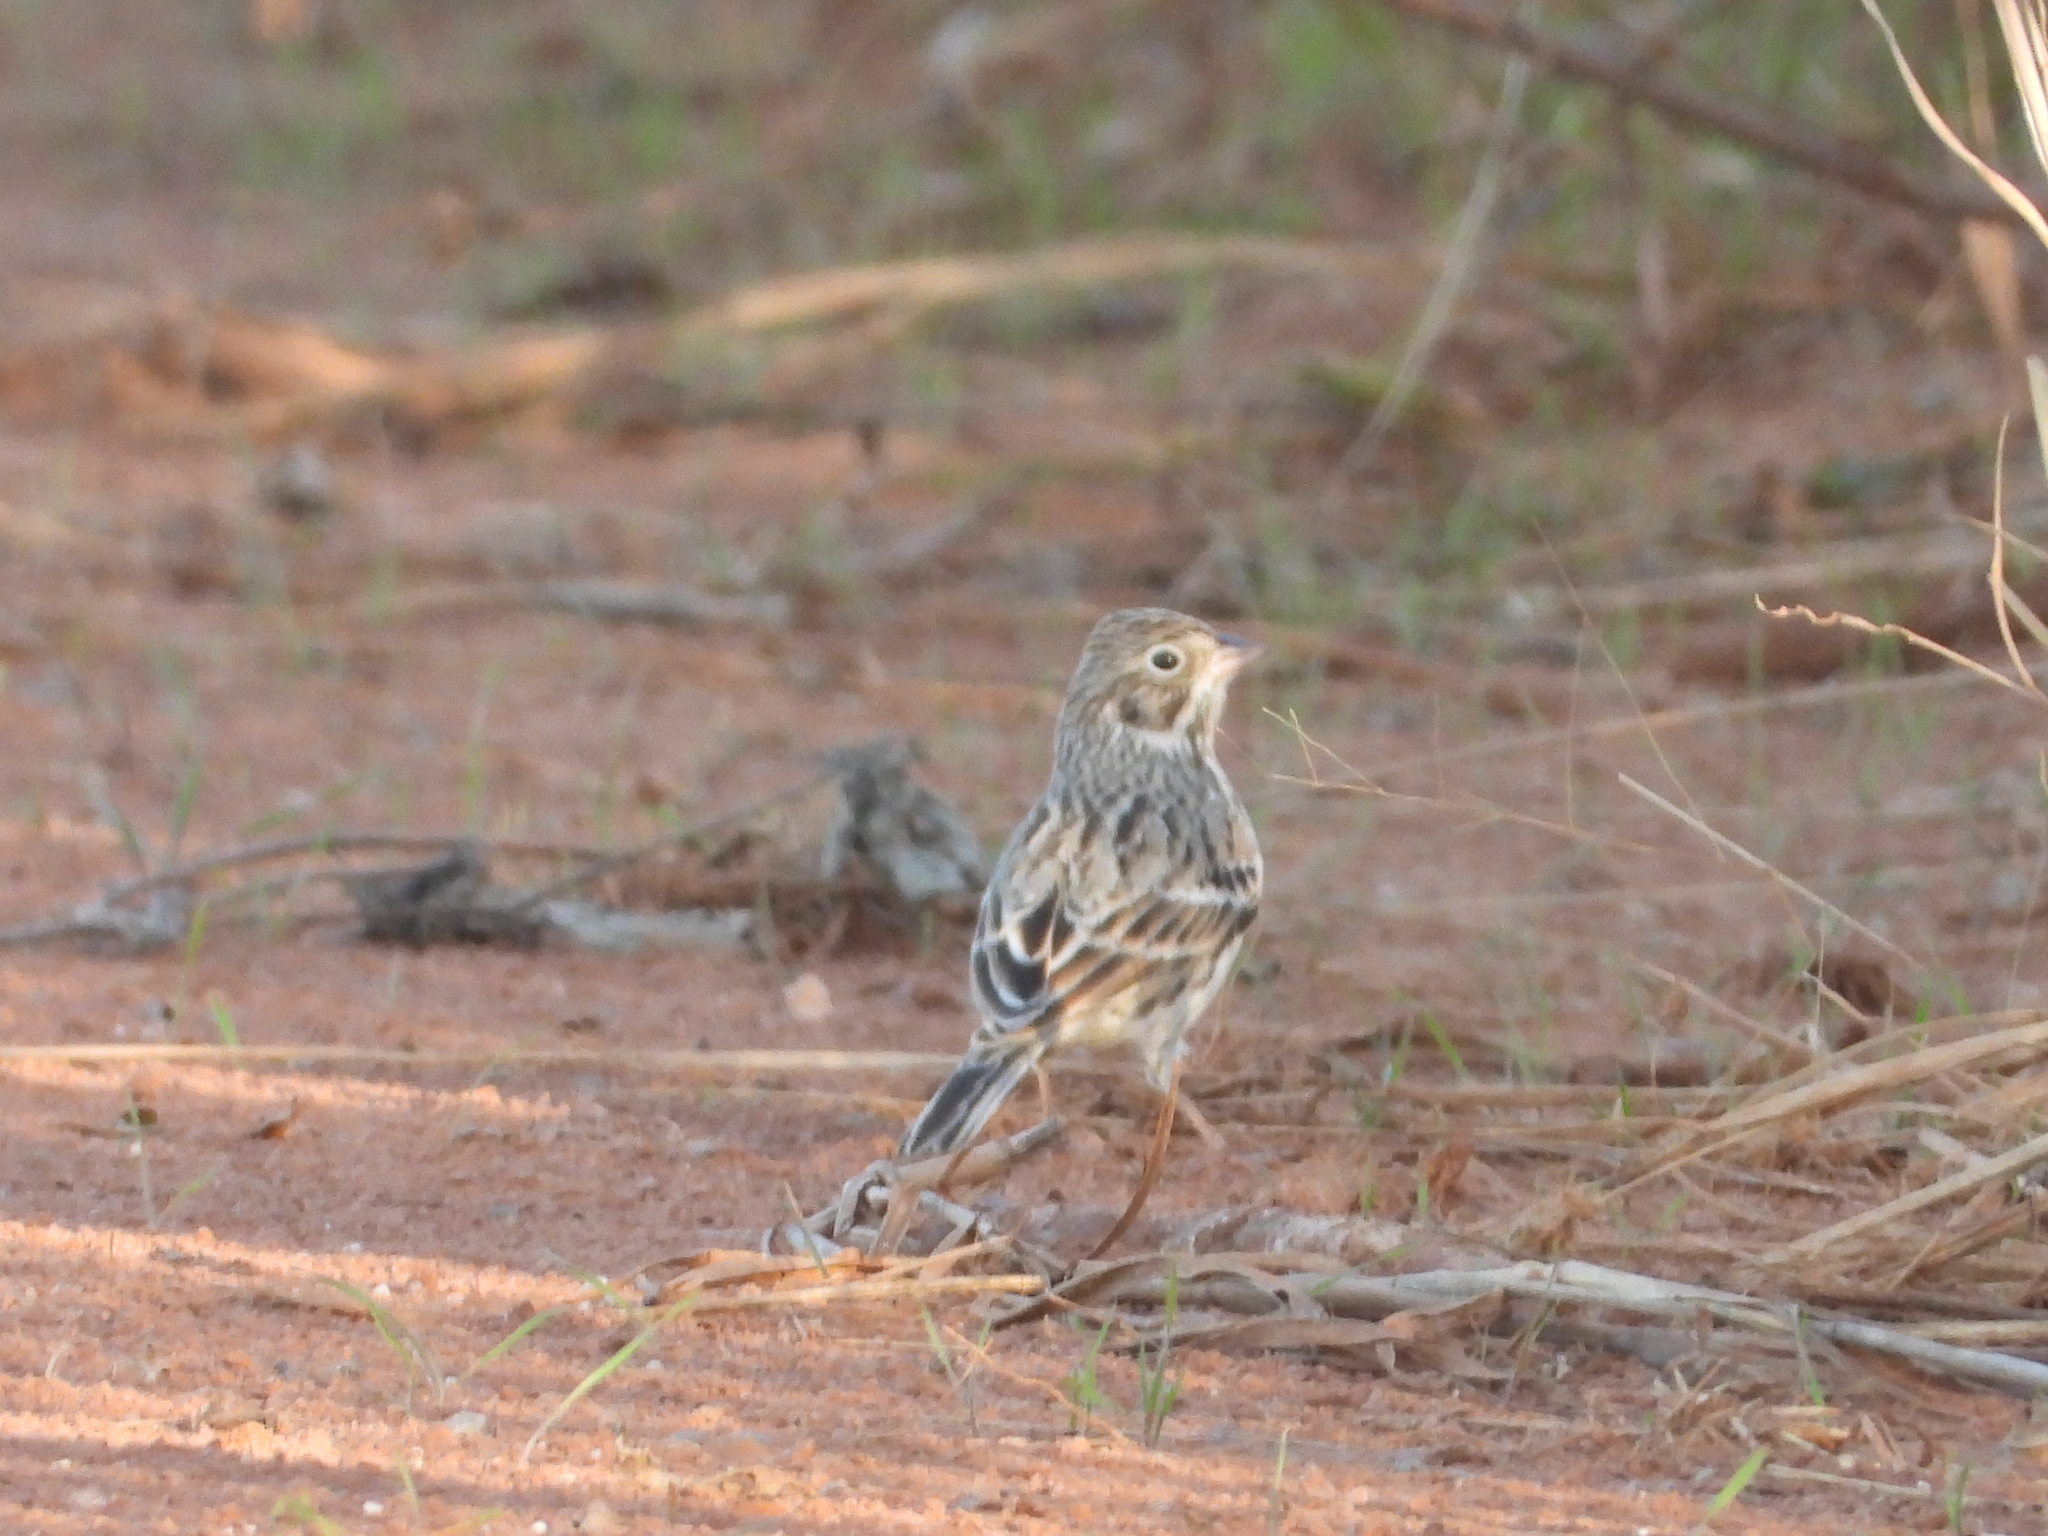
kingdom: Animalia
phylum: Chordata
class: Aves
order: Passeriformes
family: Passerellidae
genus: Pooecetes
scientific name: Pooecetes gramineus
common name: Vesper sparrow
